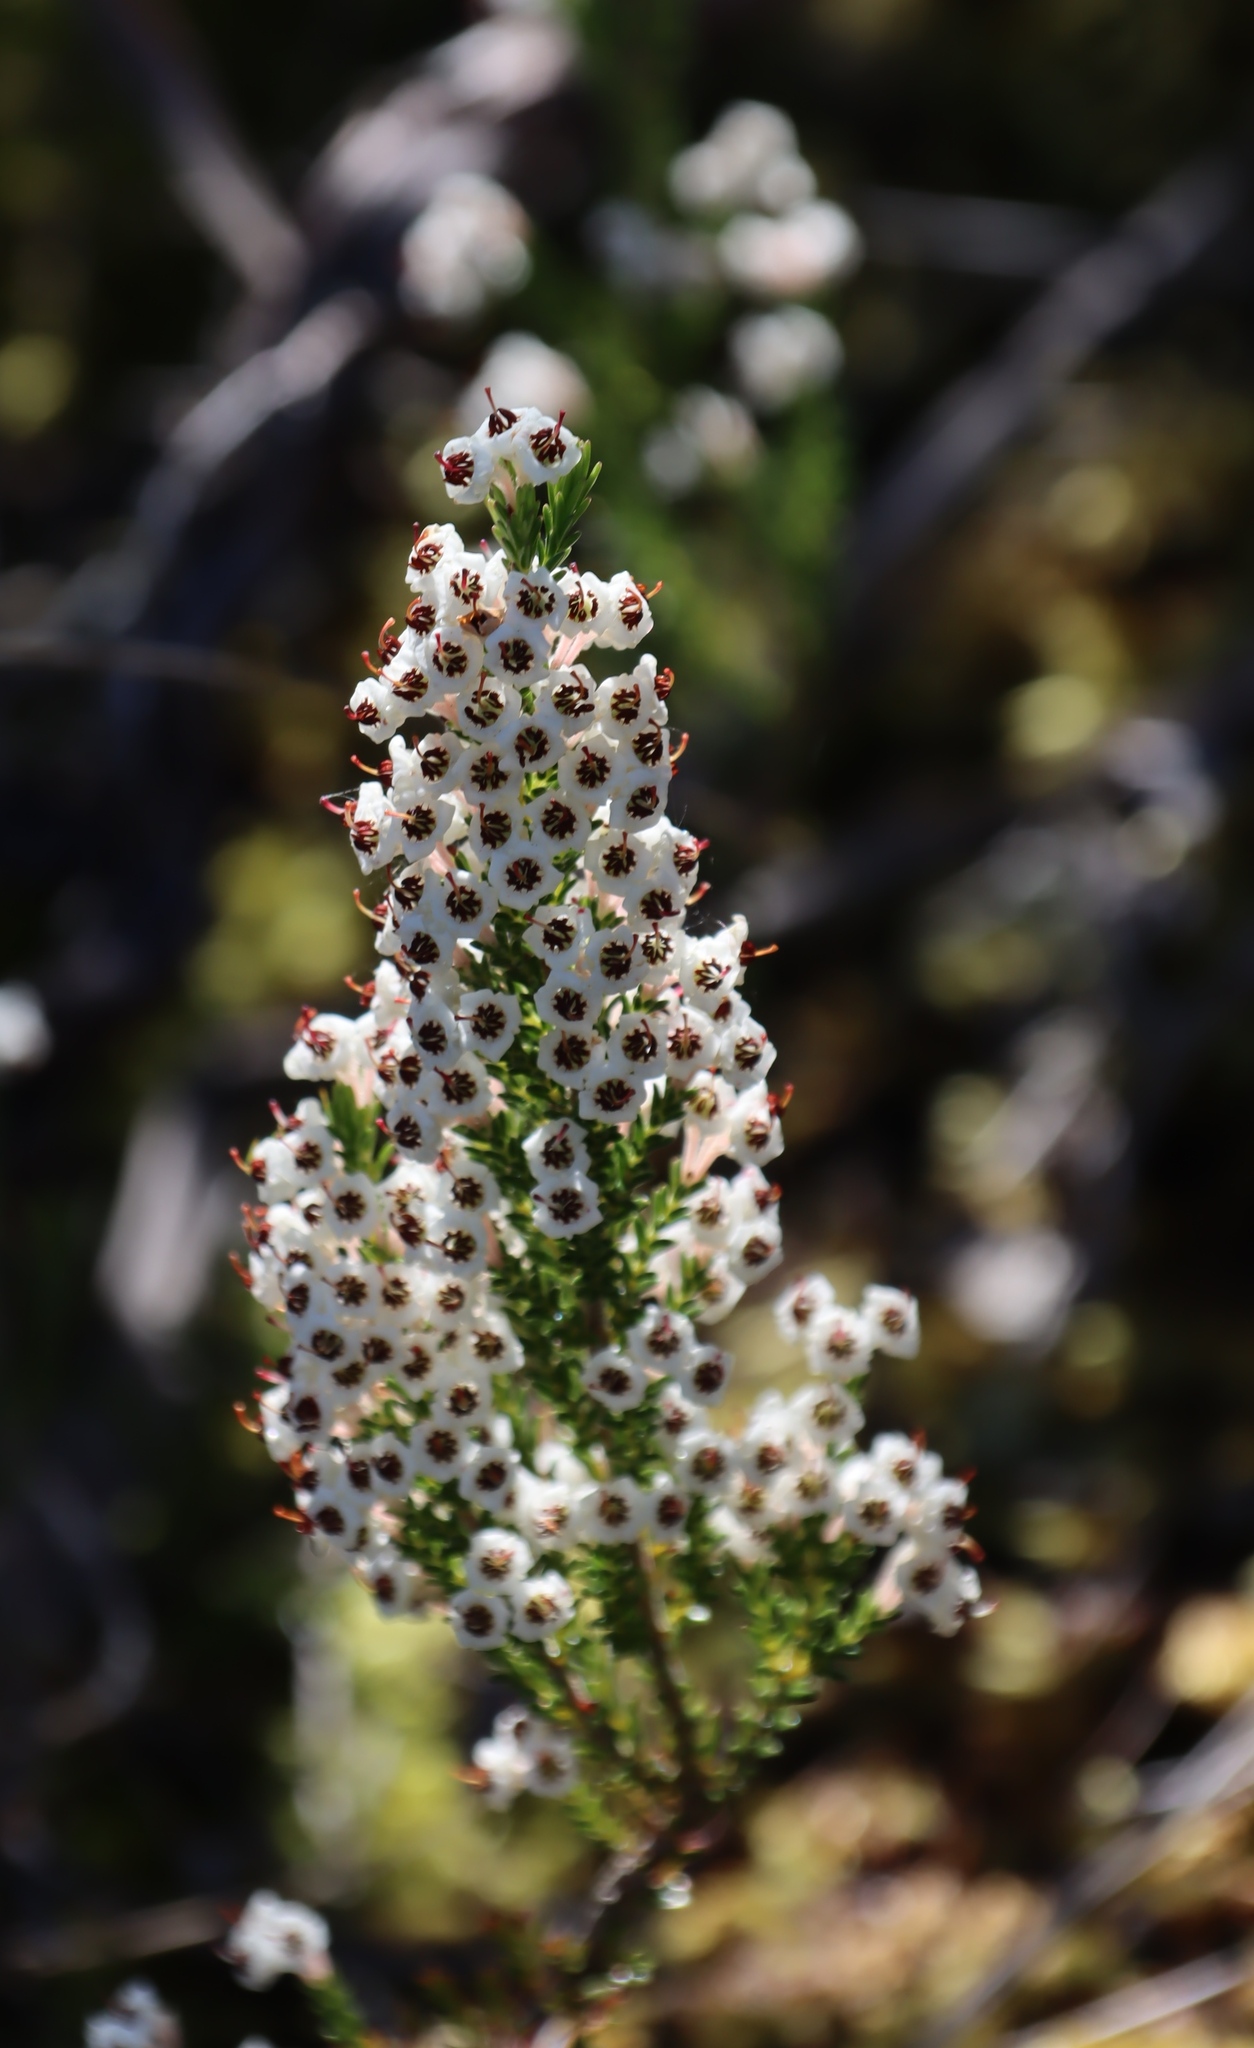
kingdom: Plantae
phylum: Tracheophyta
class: Magnoliopsida
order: Ericales
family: Ericaceae
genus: Erica
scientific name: Erica calycina
